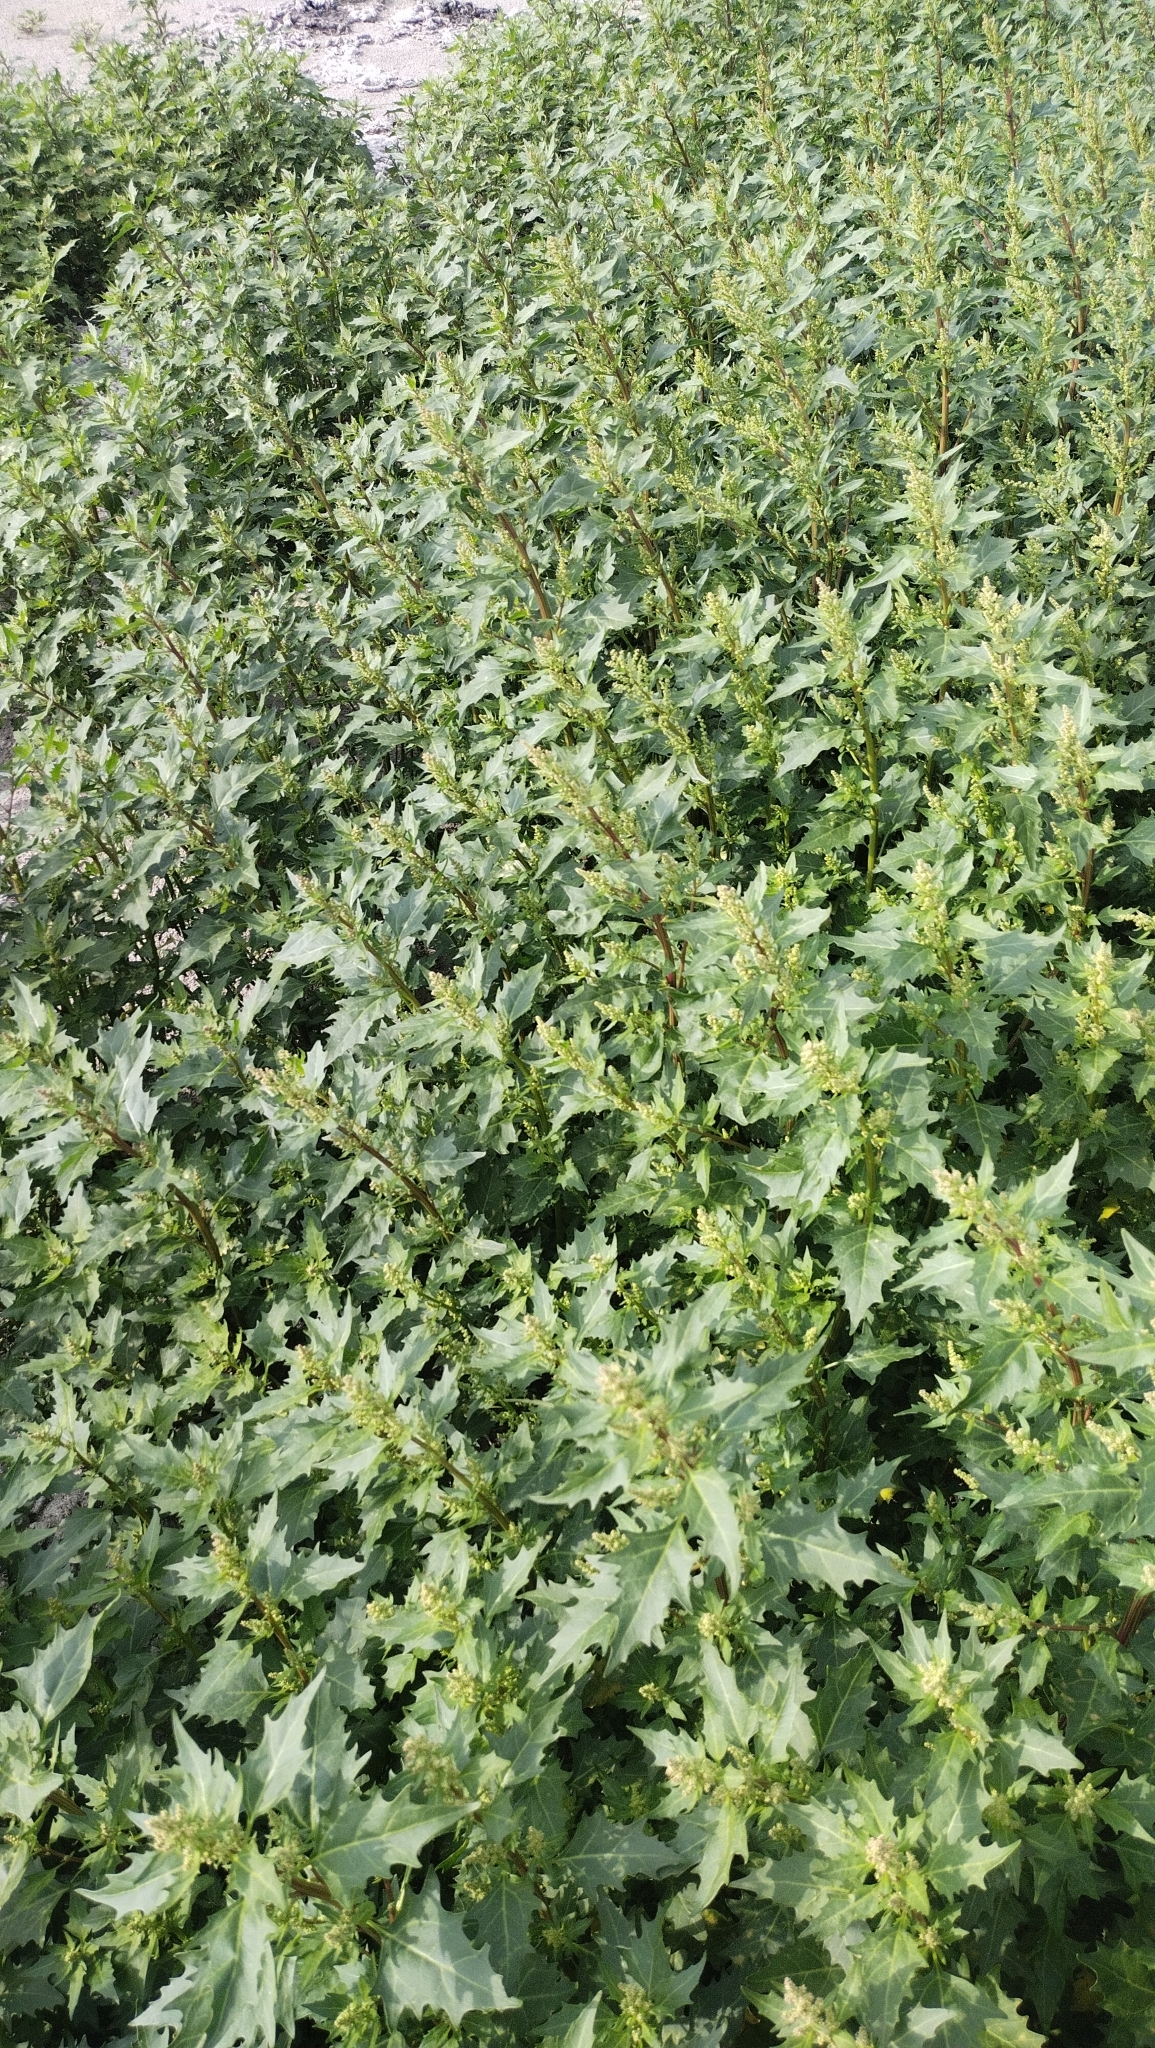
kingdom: Plantae
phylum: Tracheophyta
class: Magnoliopsida
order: Caryophyllales
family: Amaranthaceae
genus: Oxybasis
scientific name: Oxybasis rubra
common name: Red goosefoot
